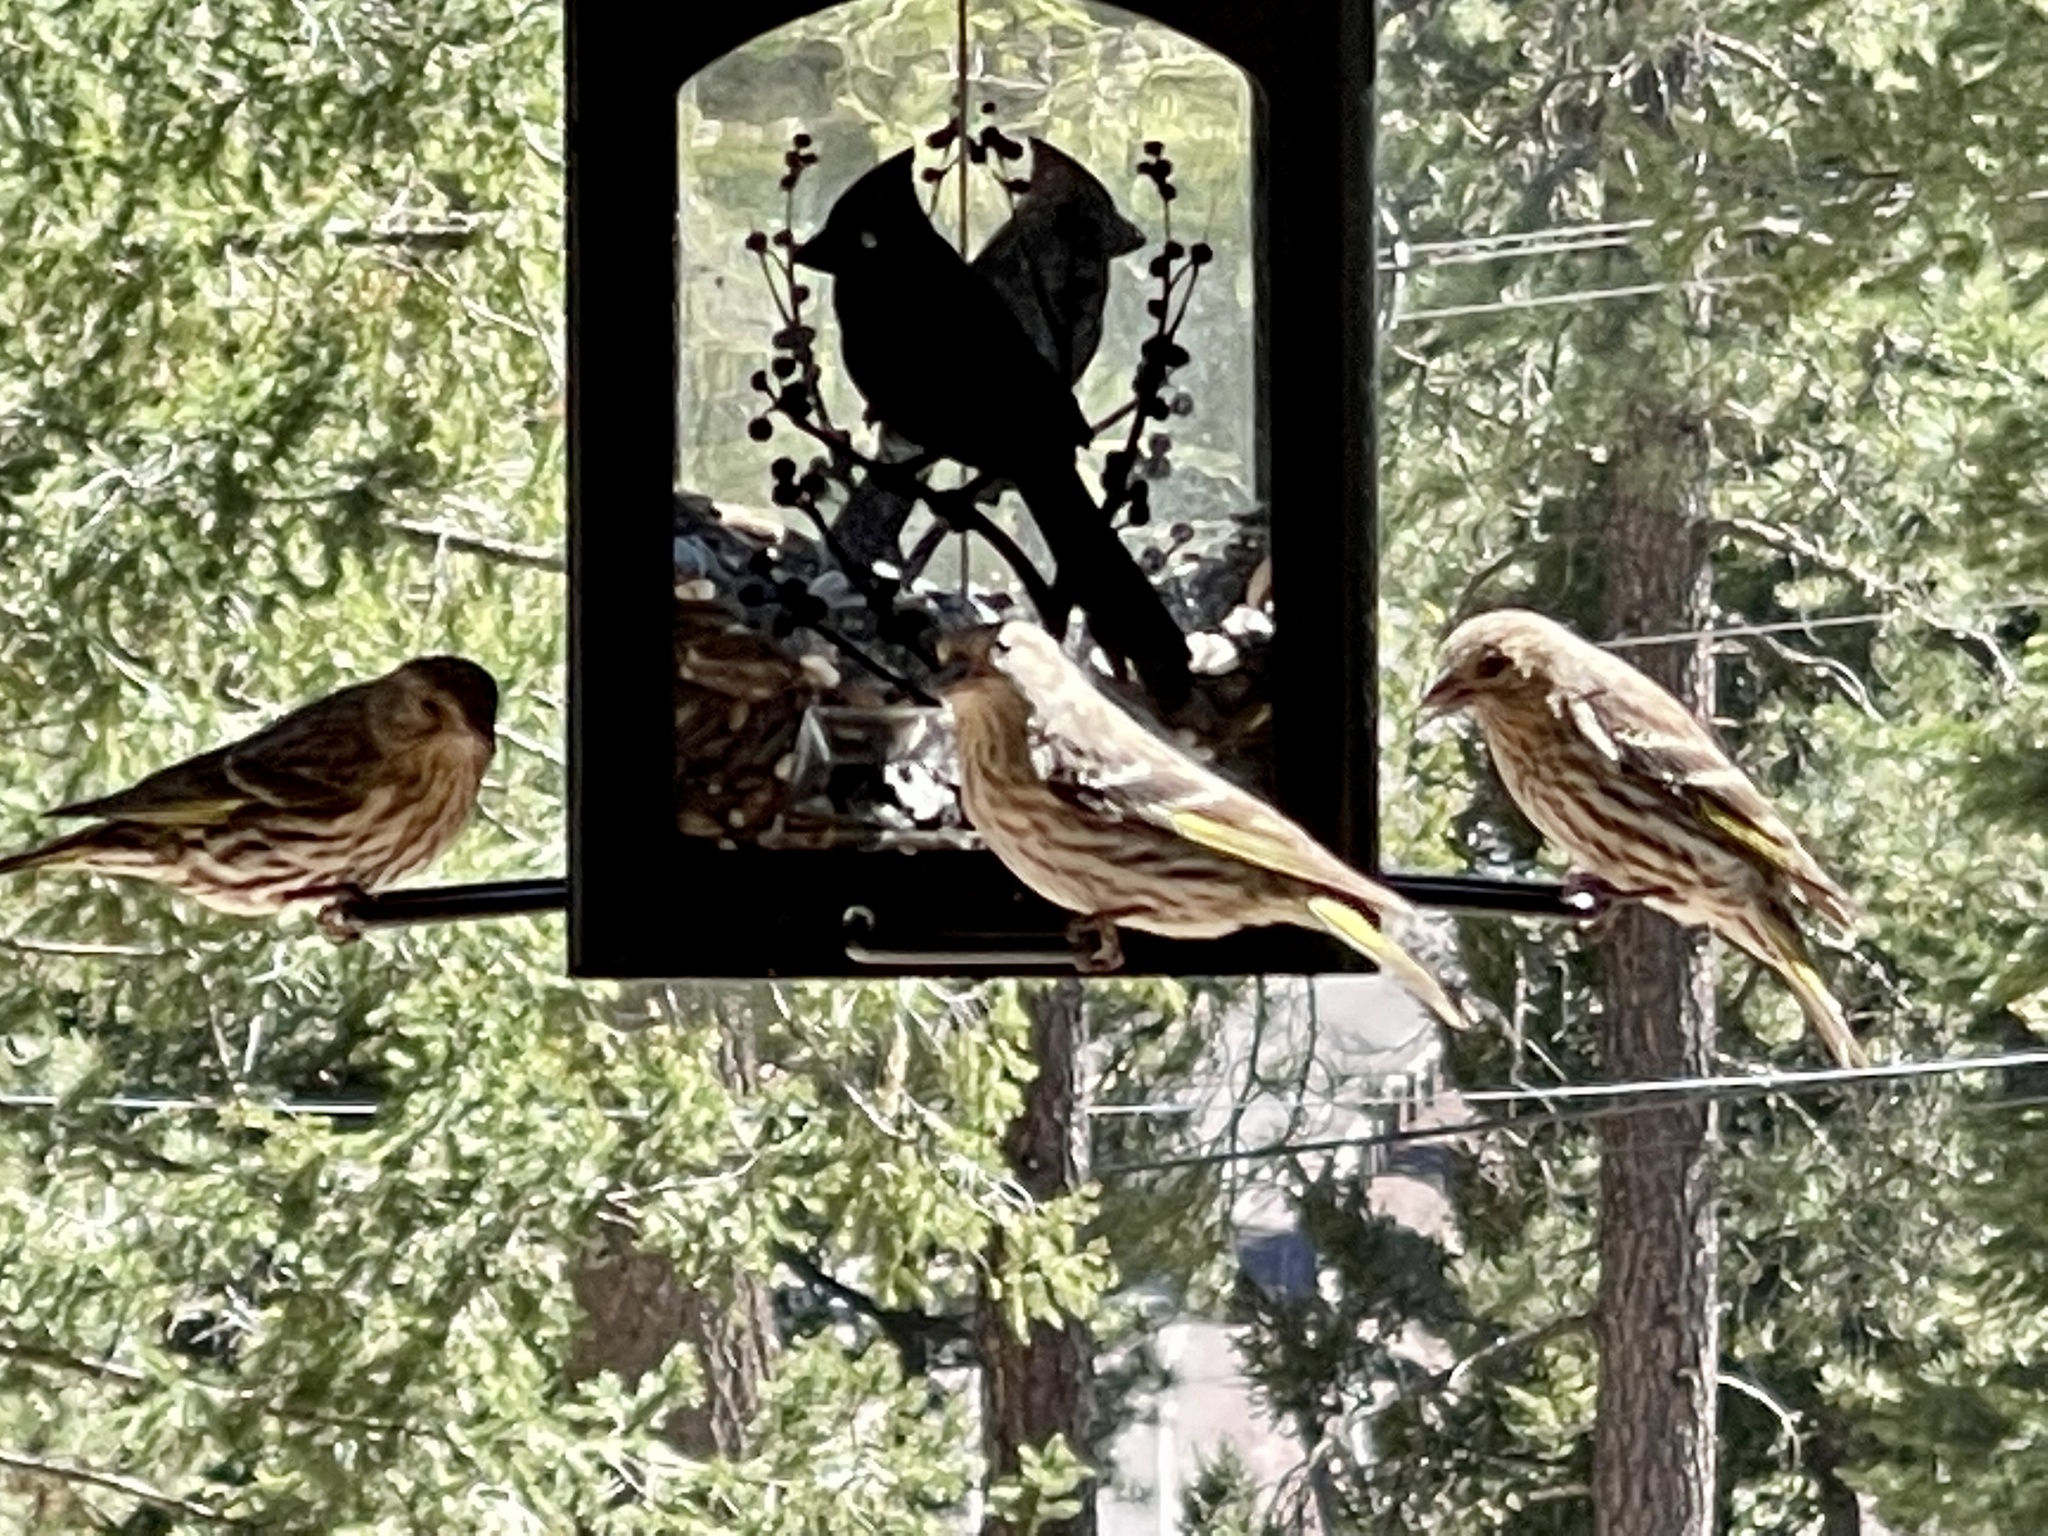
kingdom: Animalia
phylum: Chordata
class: Aves
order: Passeriformes
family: Fringillidae
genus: Spinus
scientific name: Spinus pinus
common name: Pine siskin
